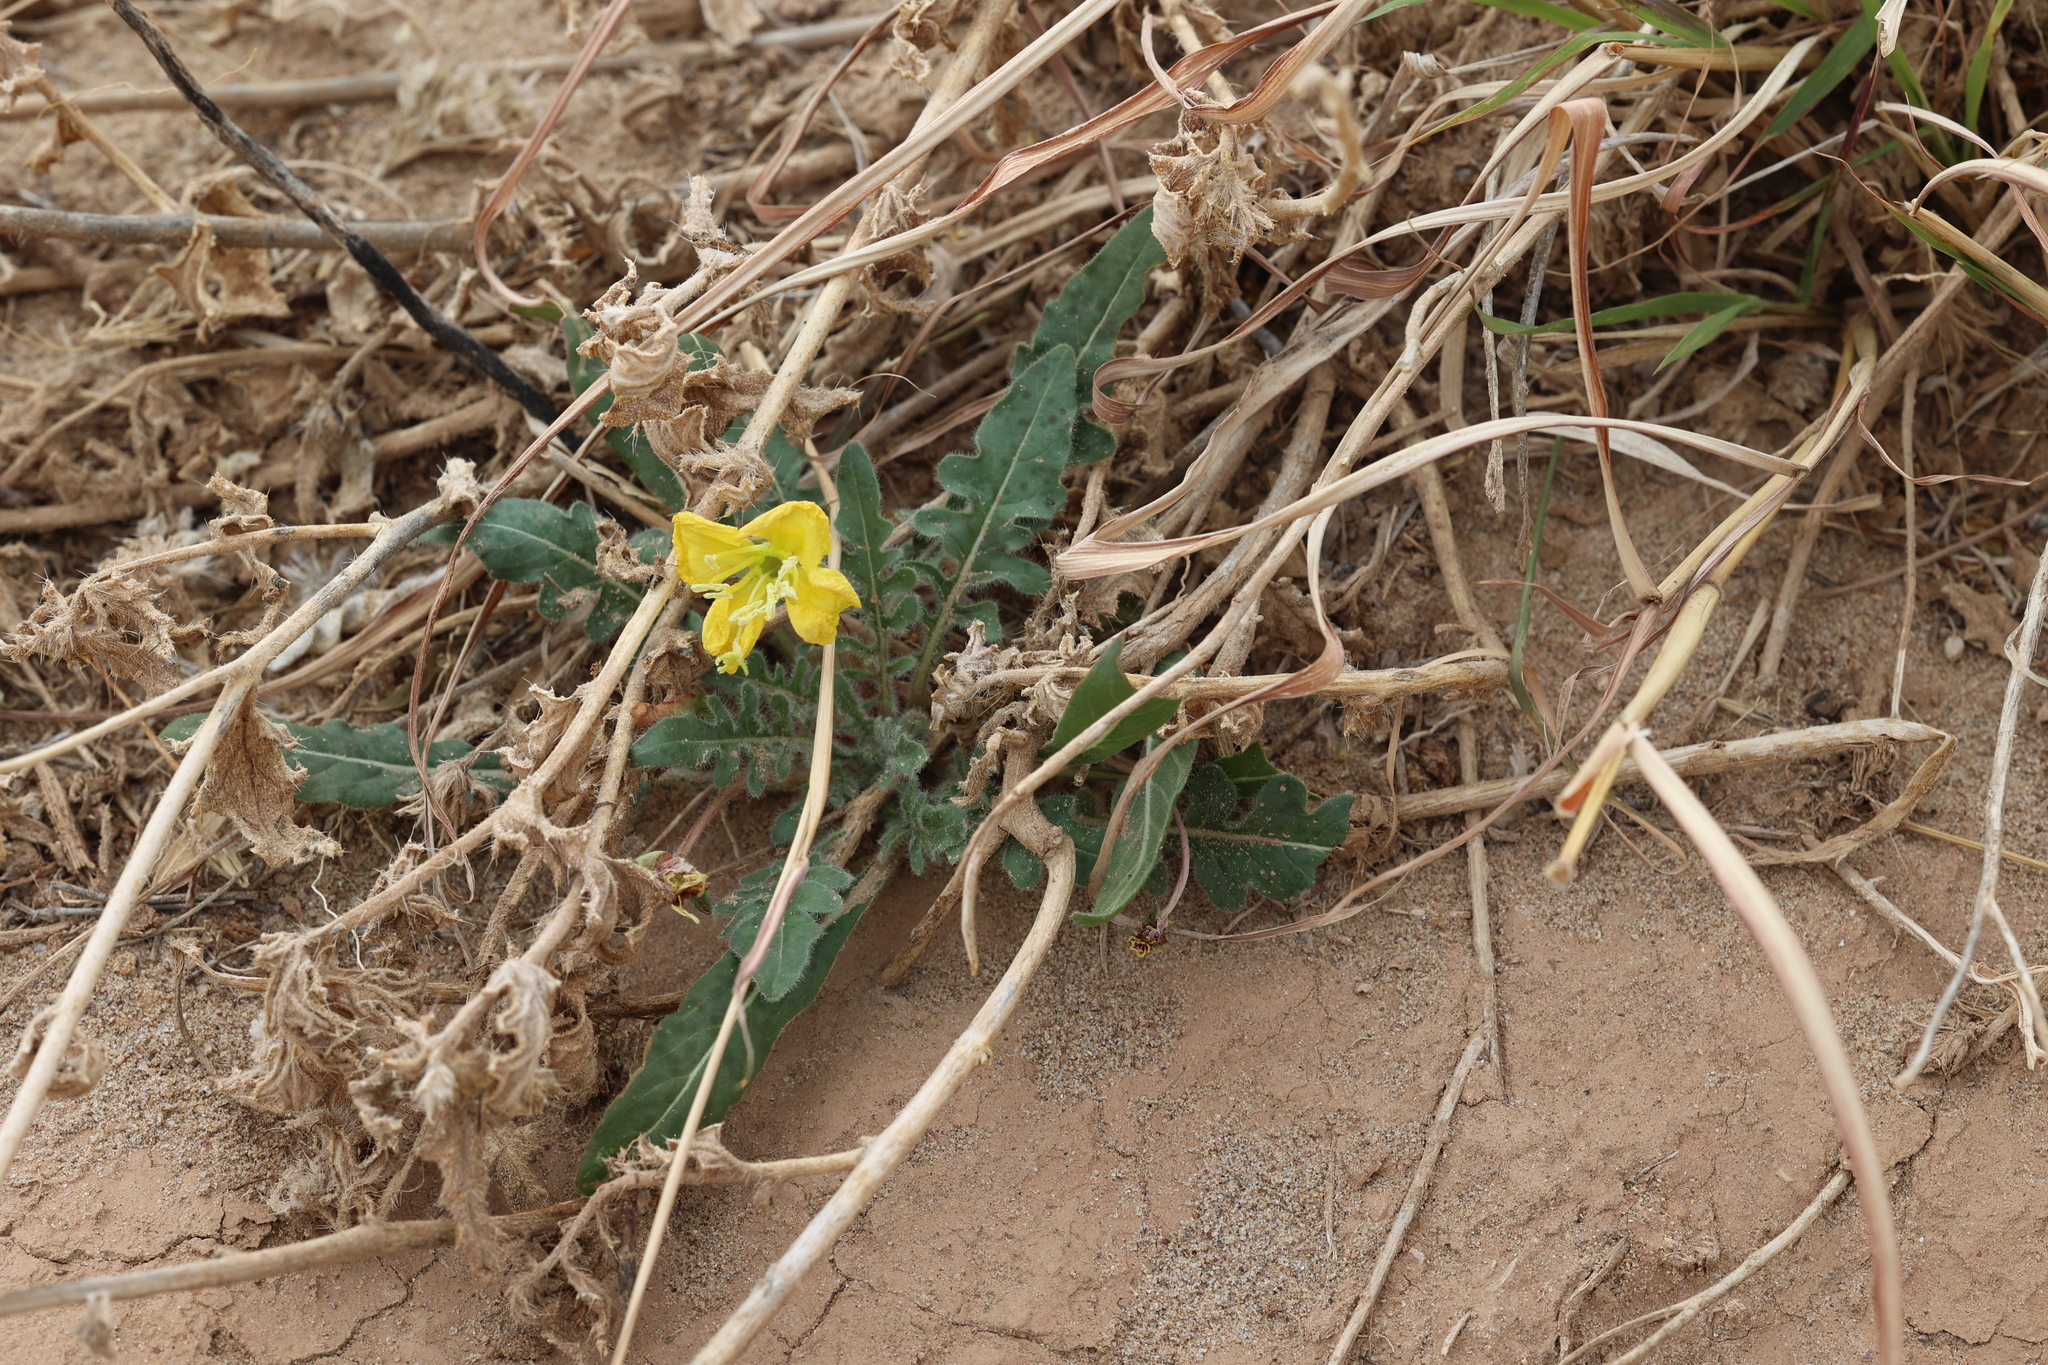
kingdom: Plantae
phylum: Tracheophyta
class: Magnoliopsida
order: Myrtales
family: Onagraceae
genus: Oenothera
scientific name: Oenothera primiveris
